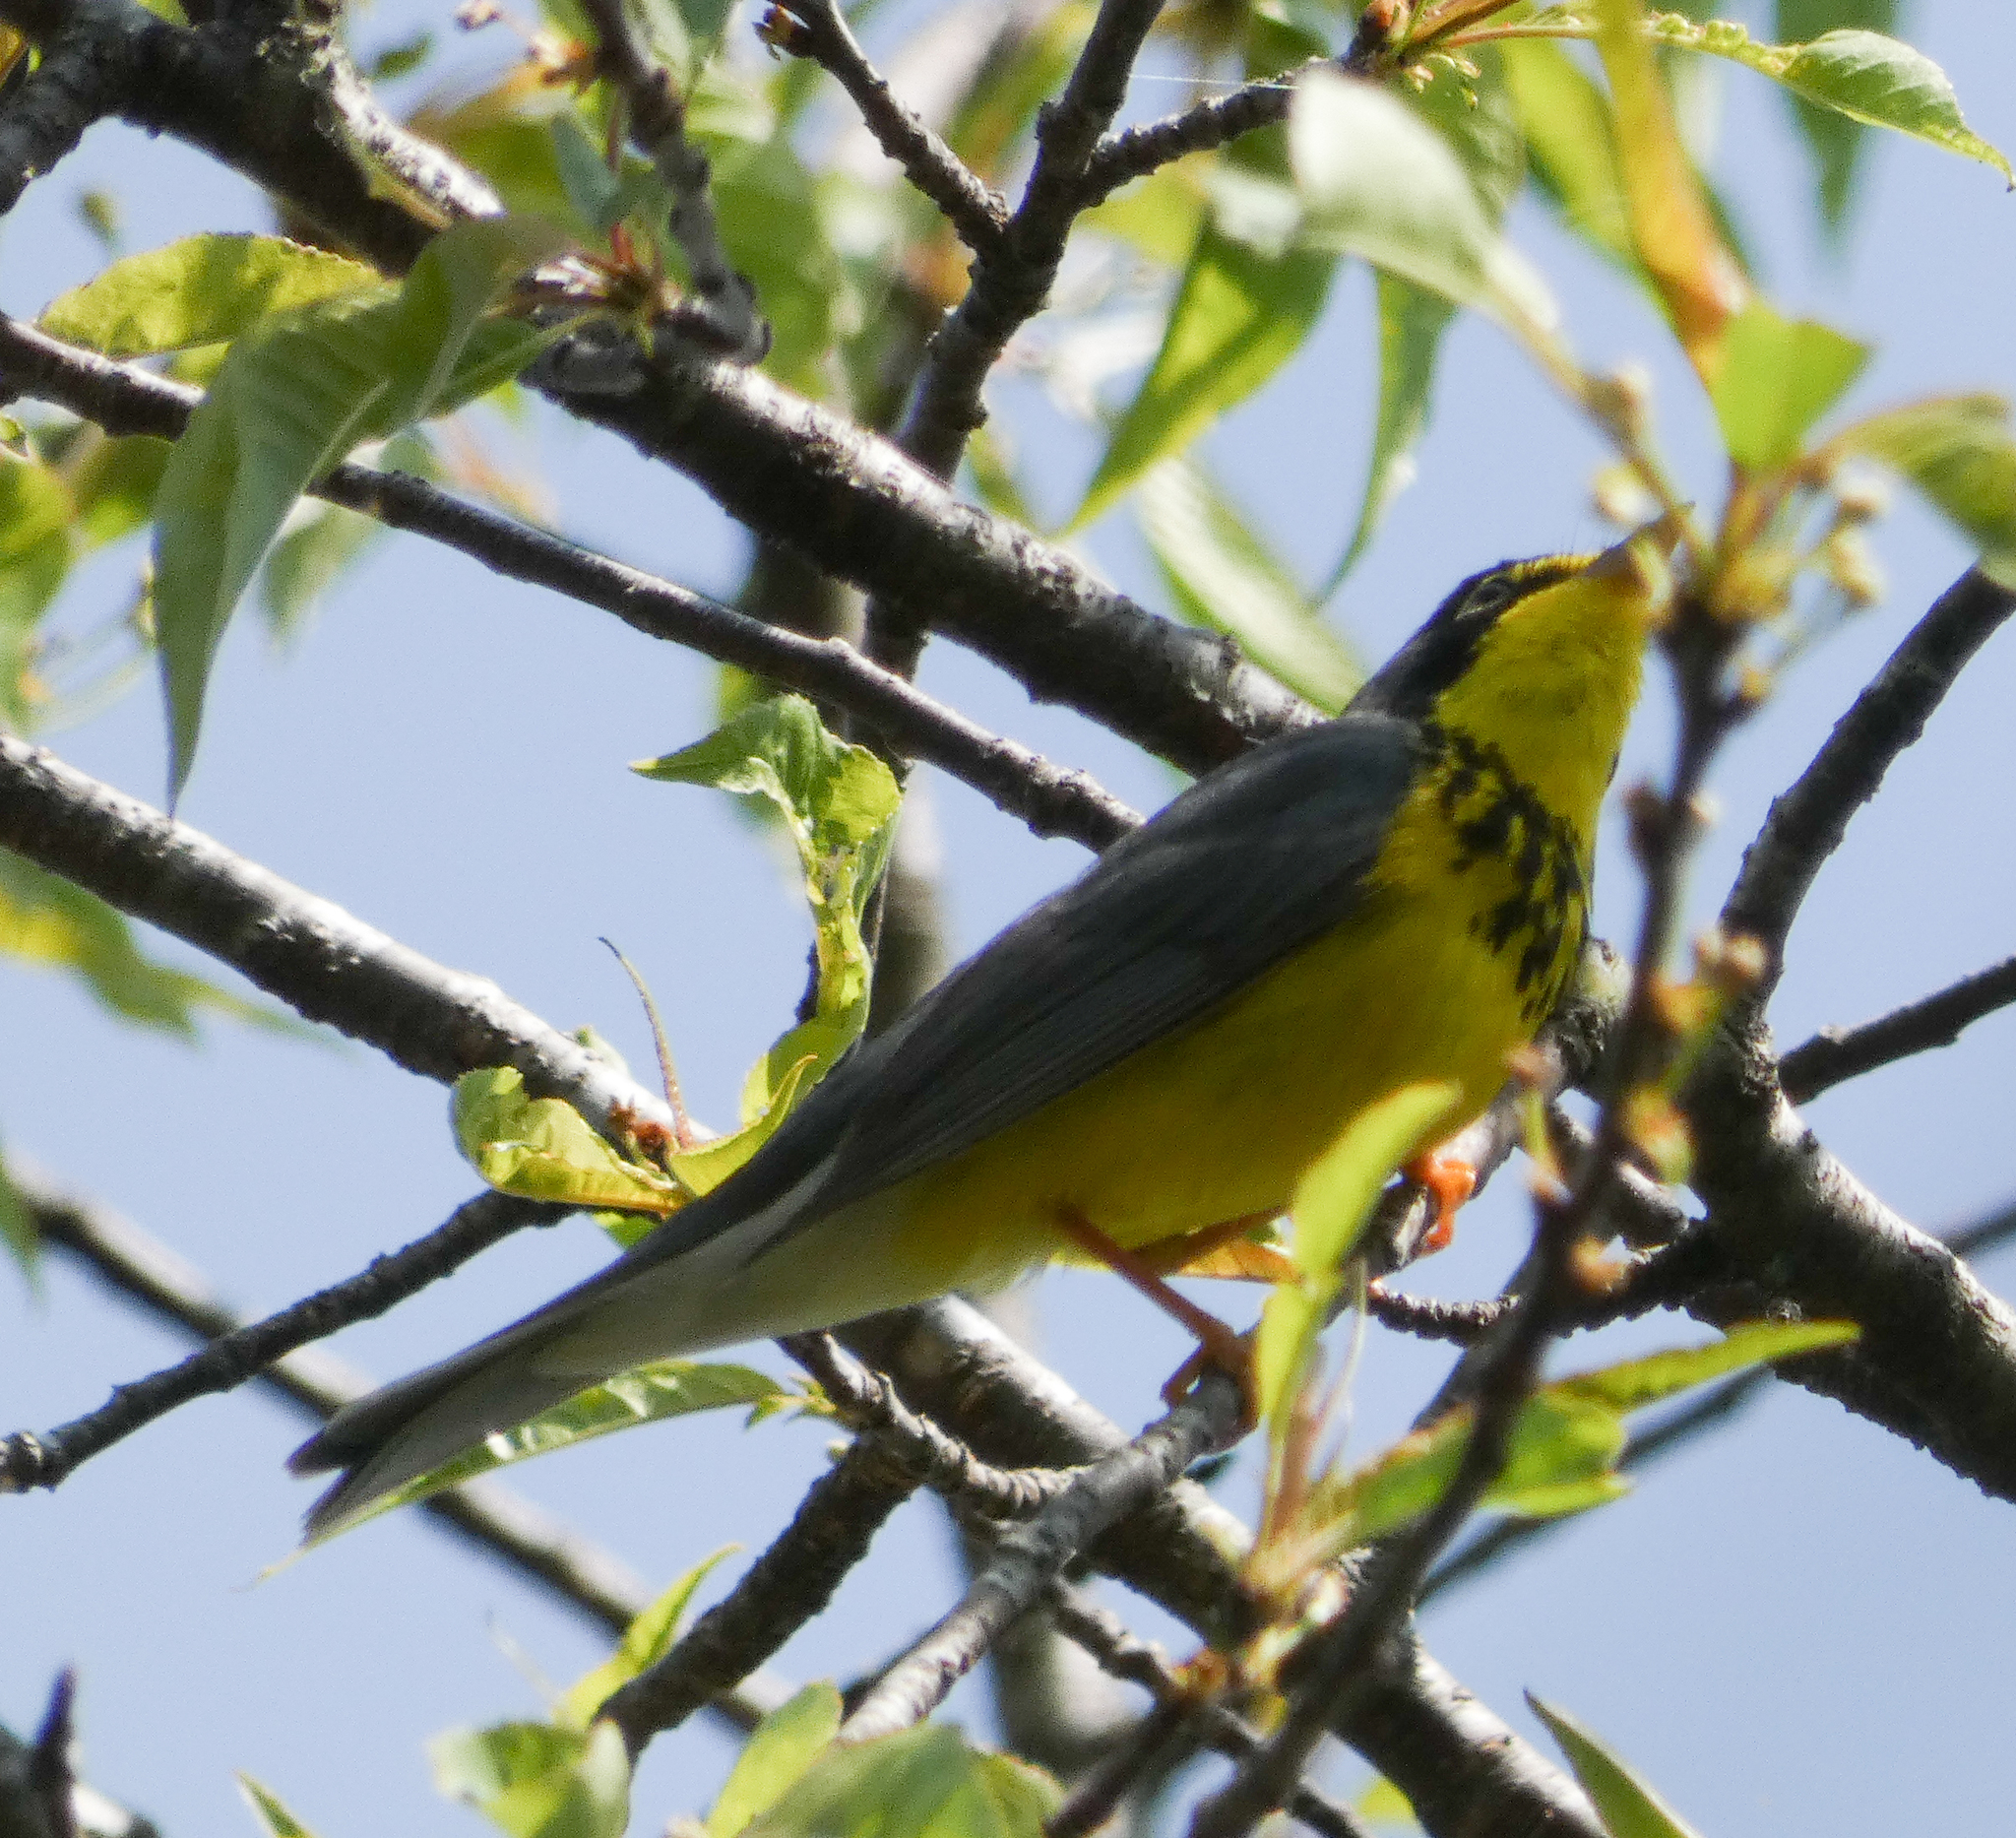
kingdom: Animalia
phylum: Chordata
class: Aves
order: Passeriformes
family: Parulidae
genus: Cardellina
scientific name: Cardellina canadensis
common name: Canada warbler
